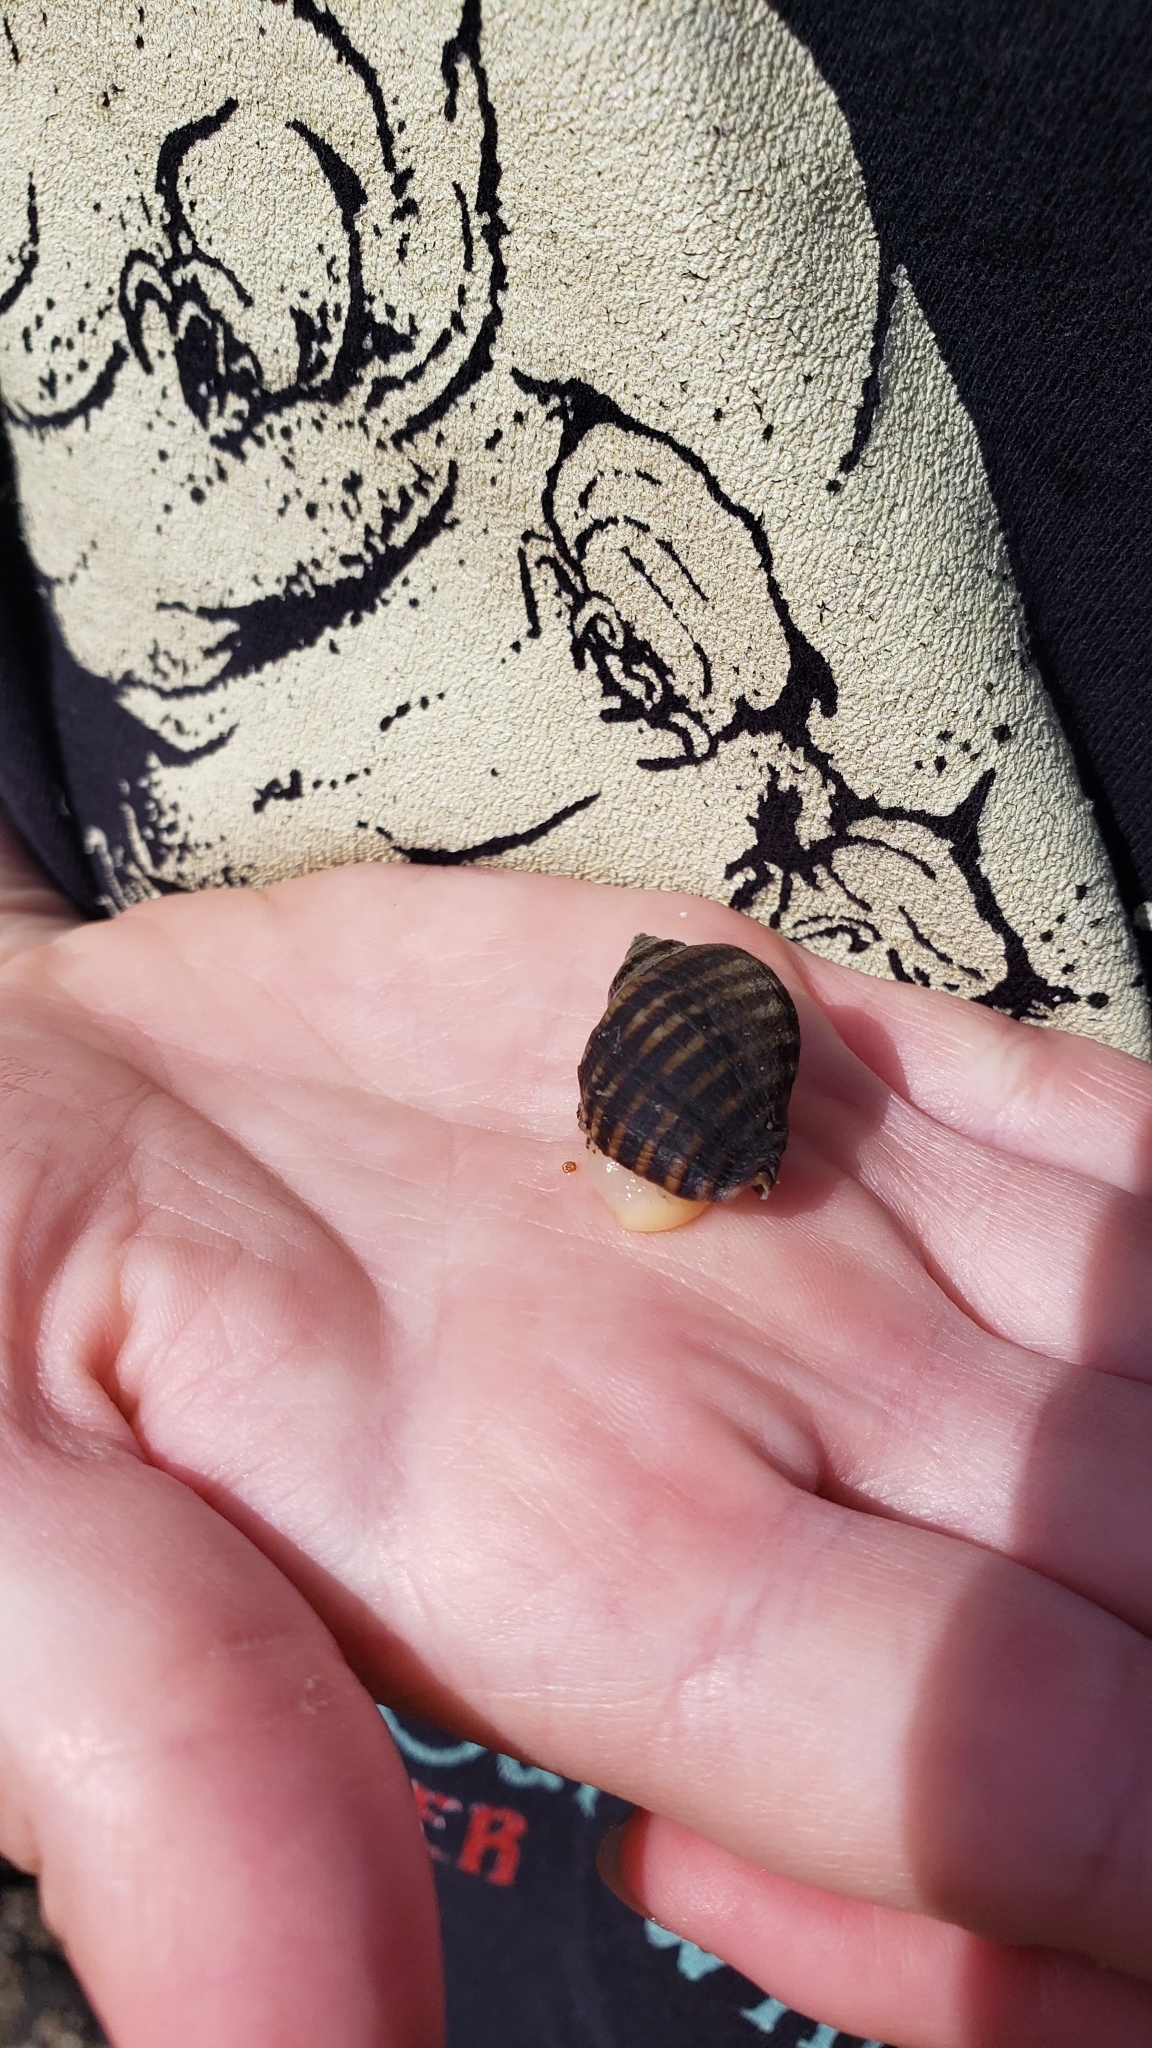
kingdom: Animalia
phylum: Mollusca
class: Gastropoda
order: Neogastropoda
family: Muricidae
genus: Nucella
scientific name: Nucella ostrina
